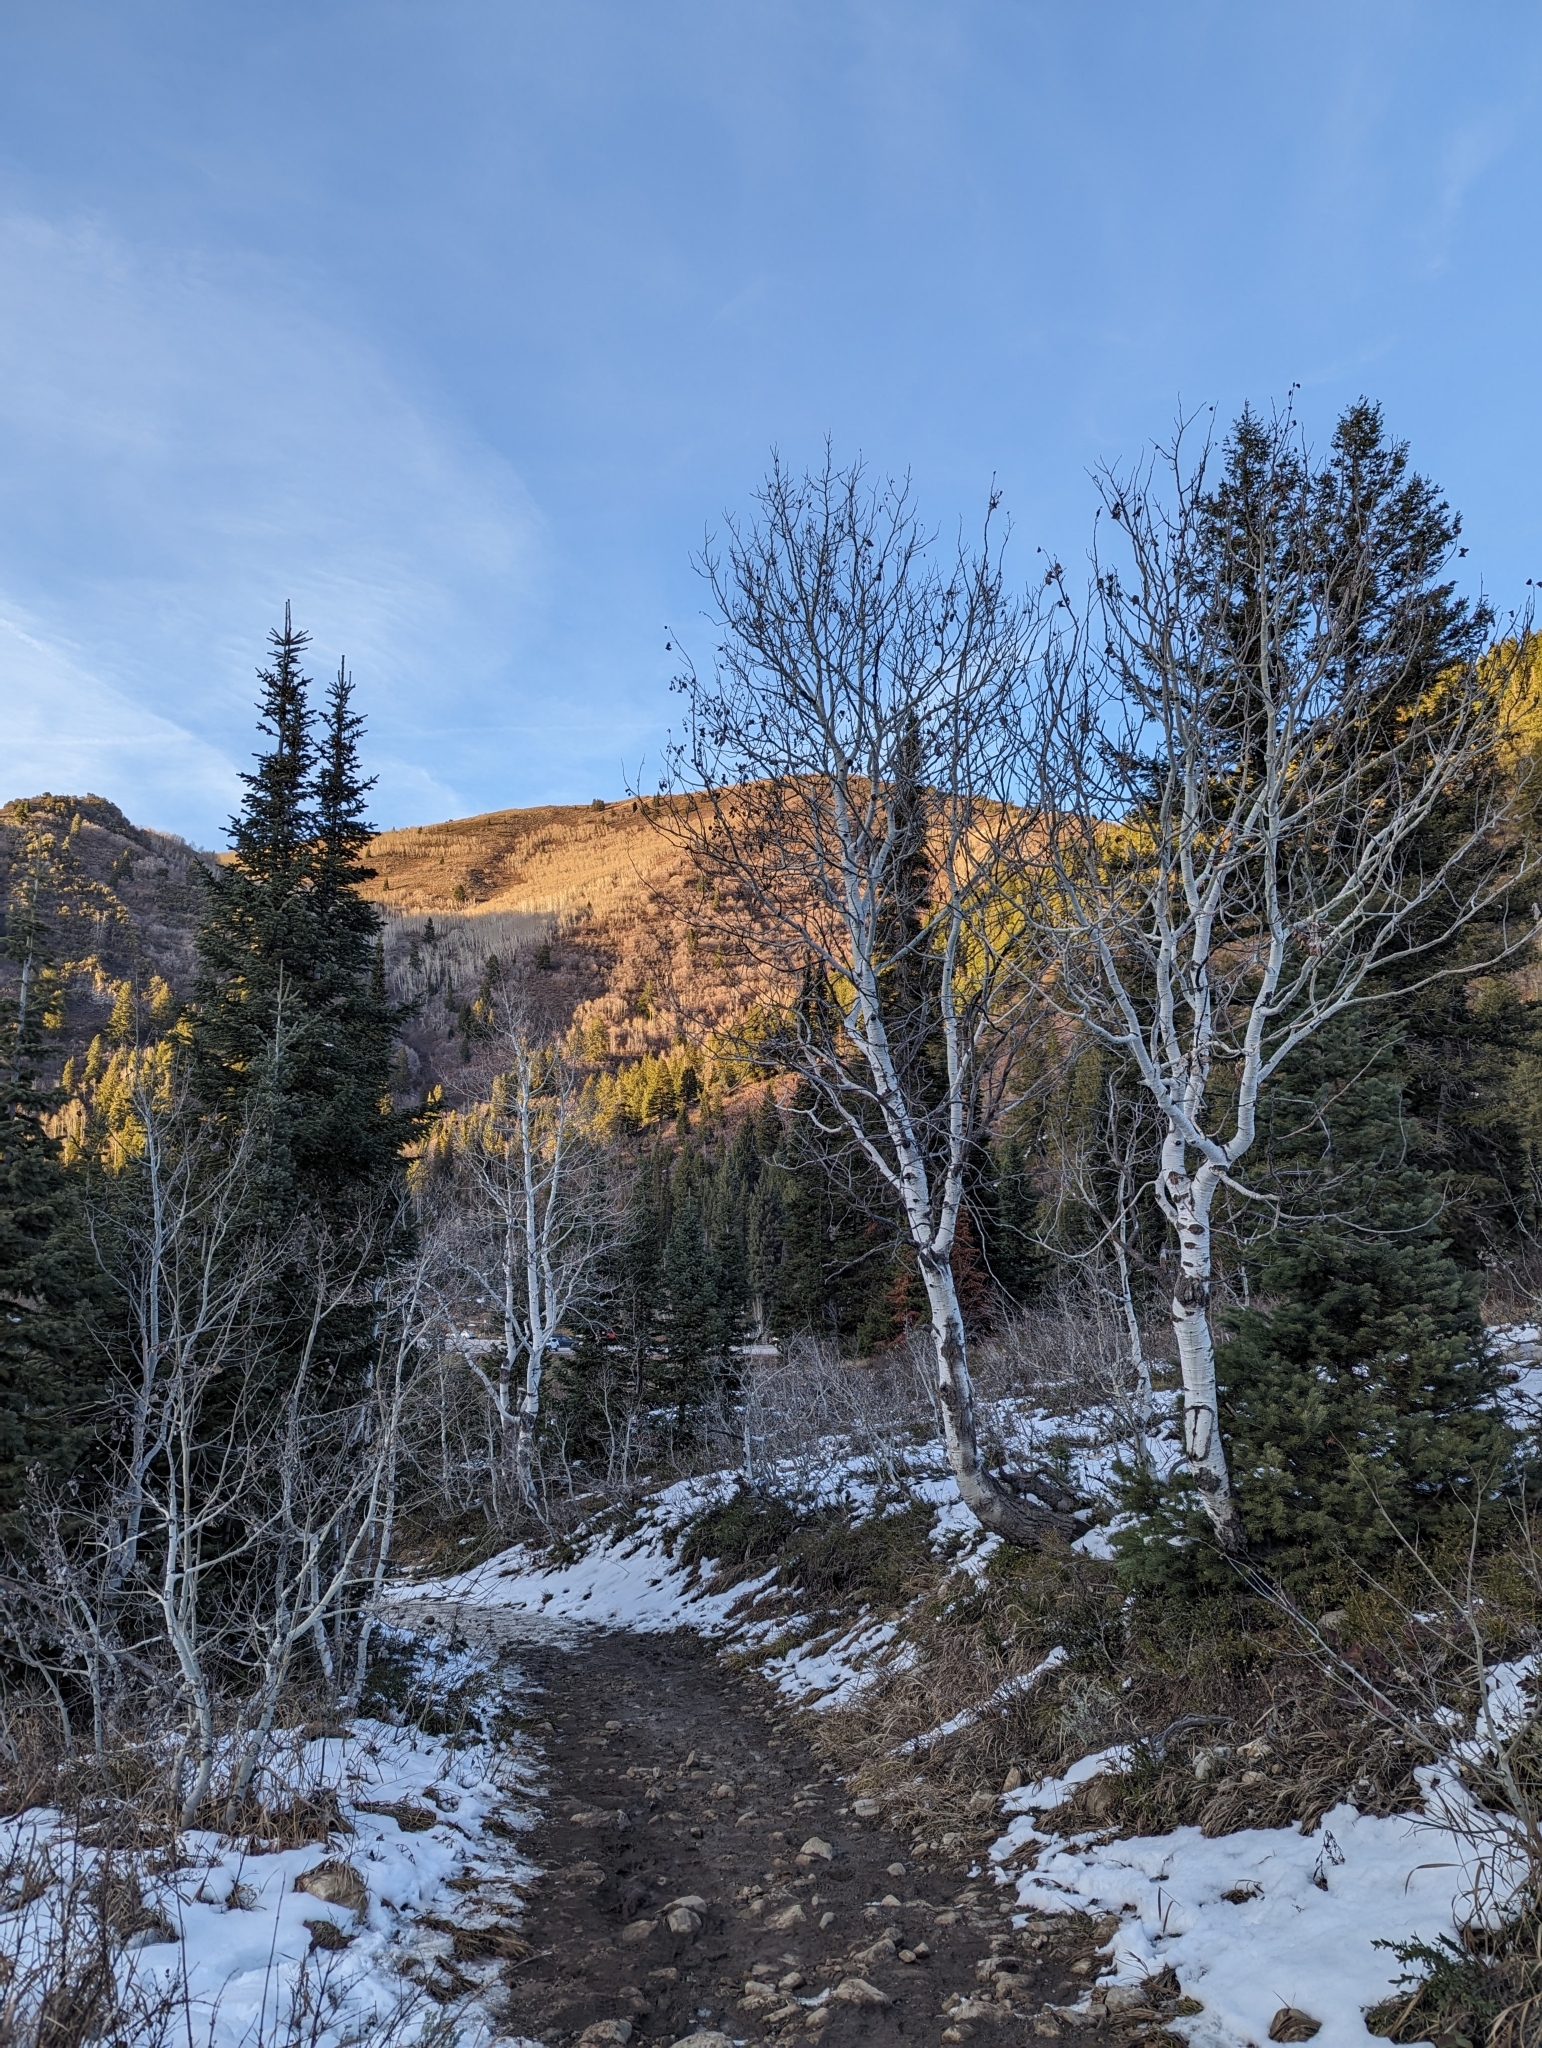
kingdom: Plantae
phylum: Tracheophyta
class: Magnoliopsida
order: Malpighiales
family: Salicaceae
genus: Populus
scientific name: Populus tremuloides
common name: Quaking aspen
